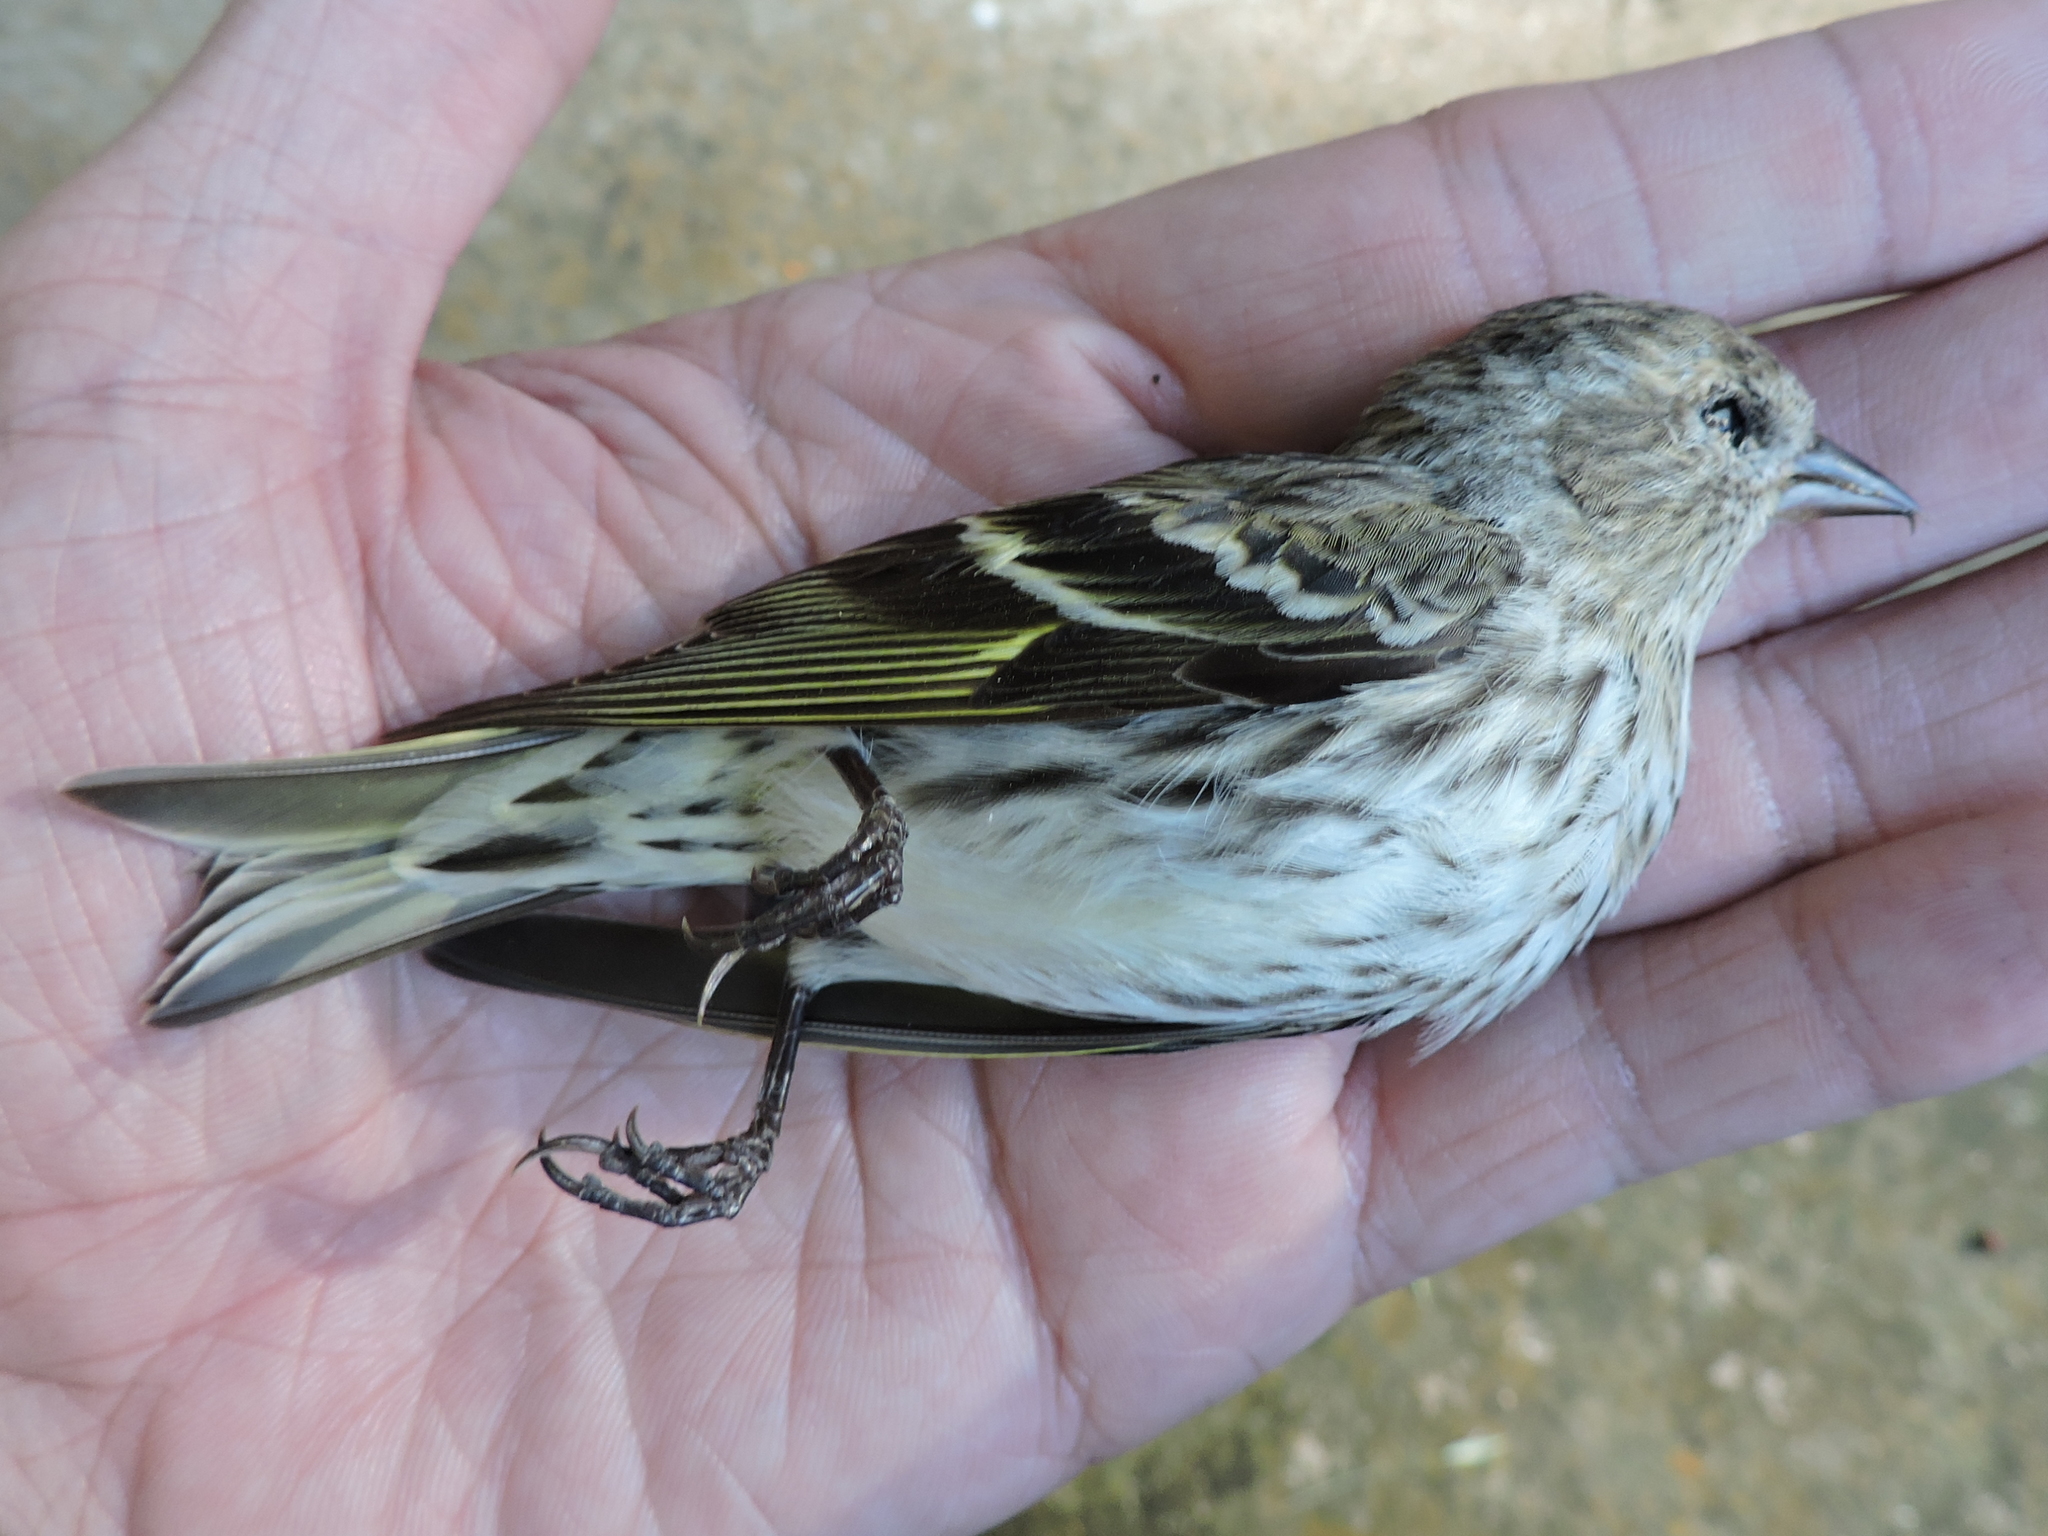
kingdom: Animalia
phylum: Chordata
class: Aves
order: Passeriformes
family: Fringillidae
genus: Spinus
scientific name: Spinus pinus
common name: Pine siskin
